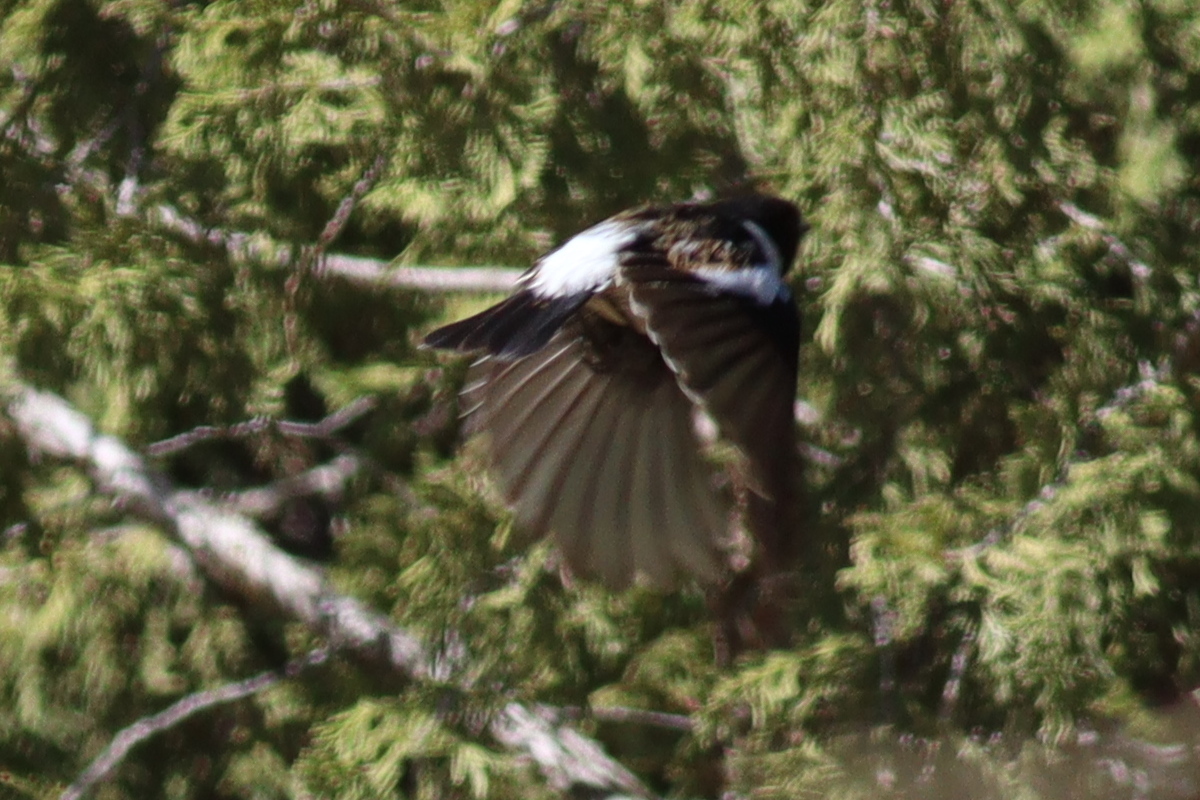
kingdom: Animalia
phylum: Chordata
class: Aves
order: Passeriformes
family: Muscicapidae
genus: Saxicola
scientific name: Saxicola torquatus
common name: African stonechat
